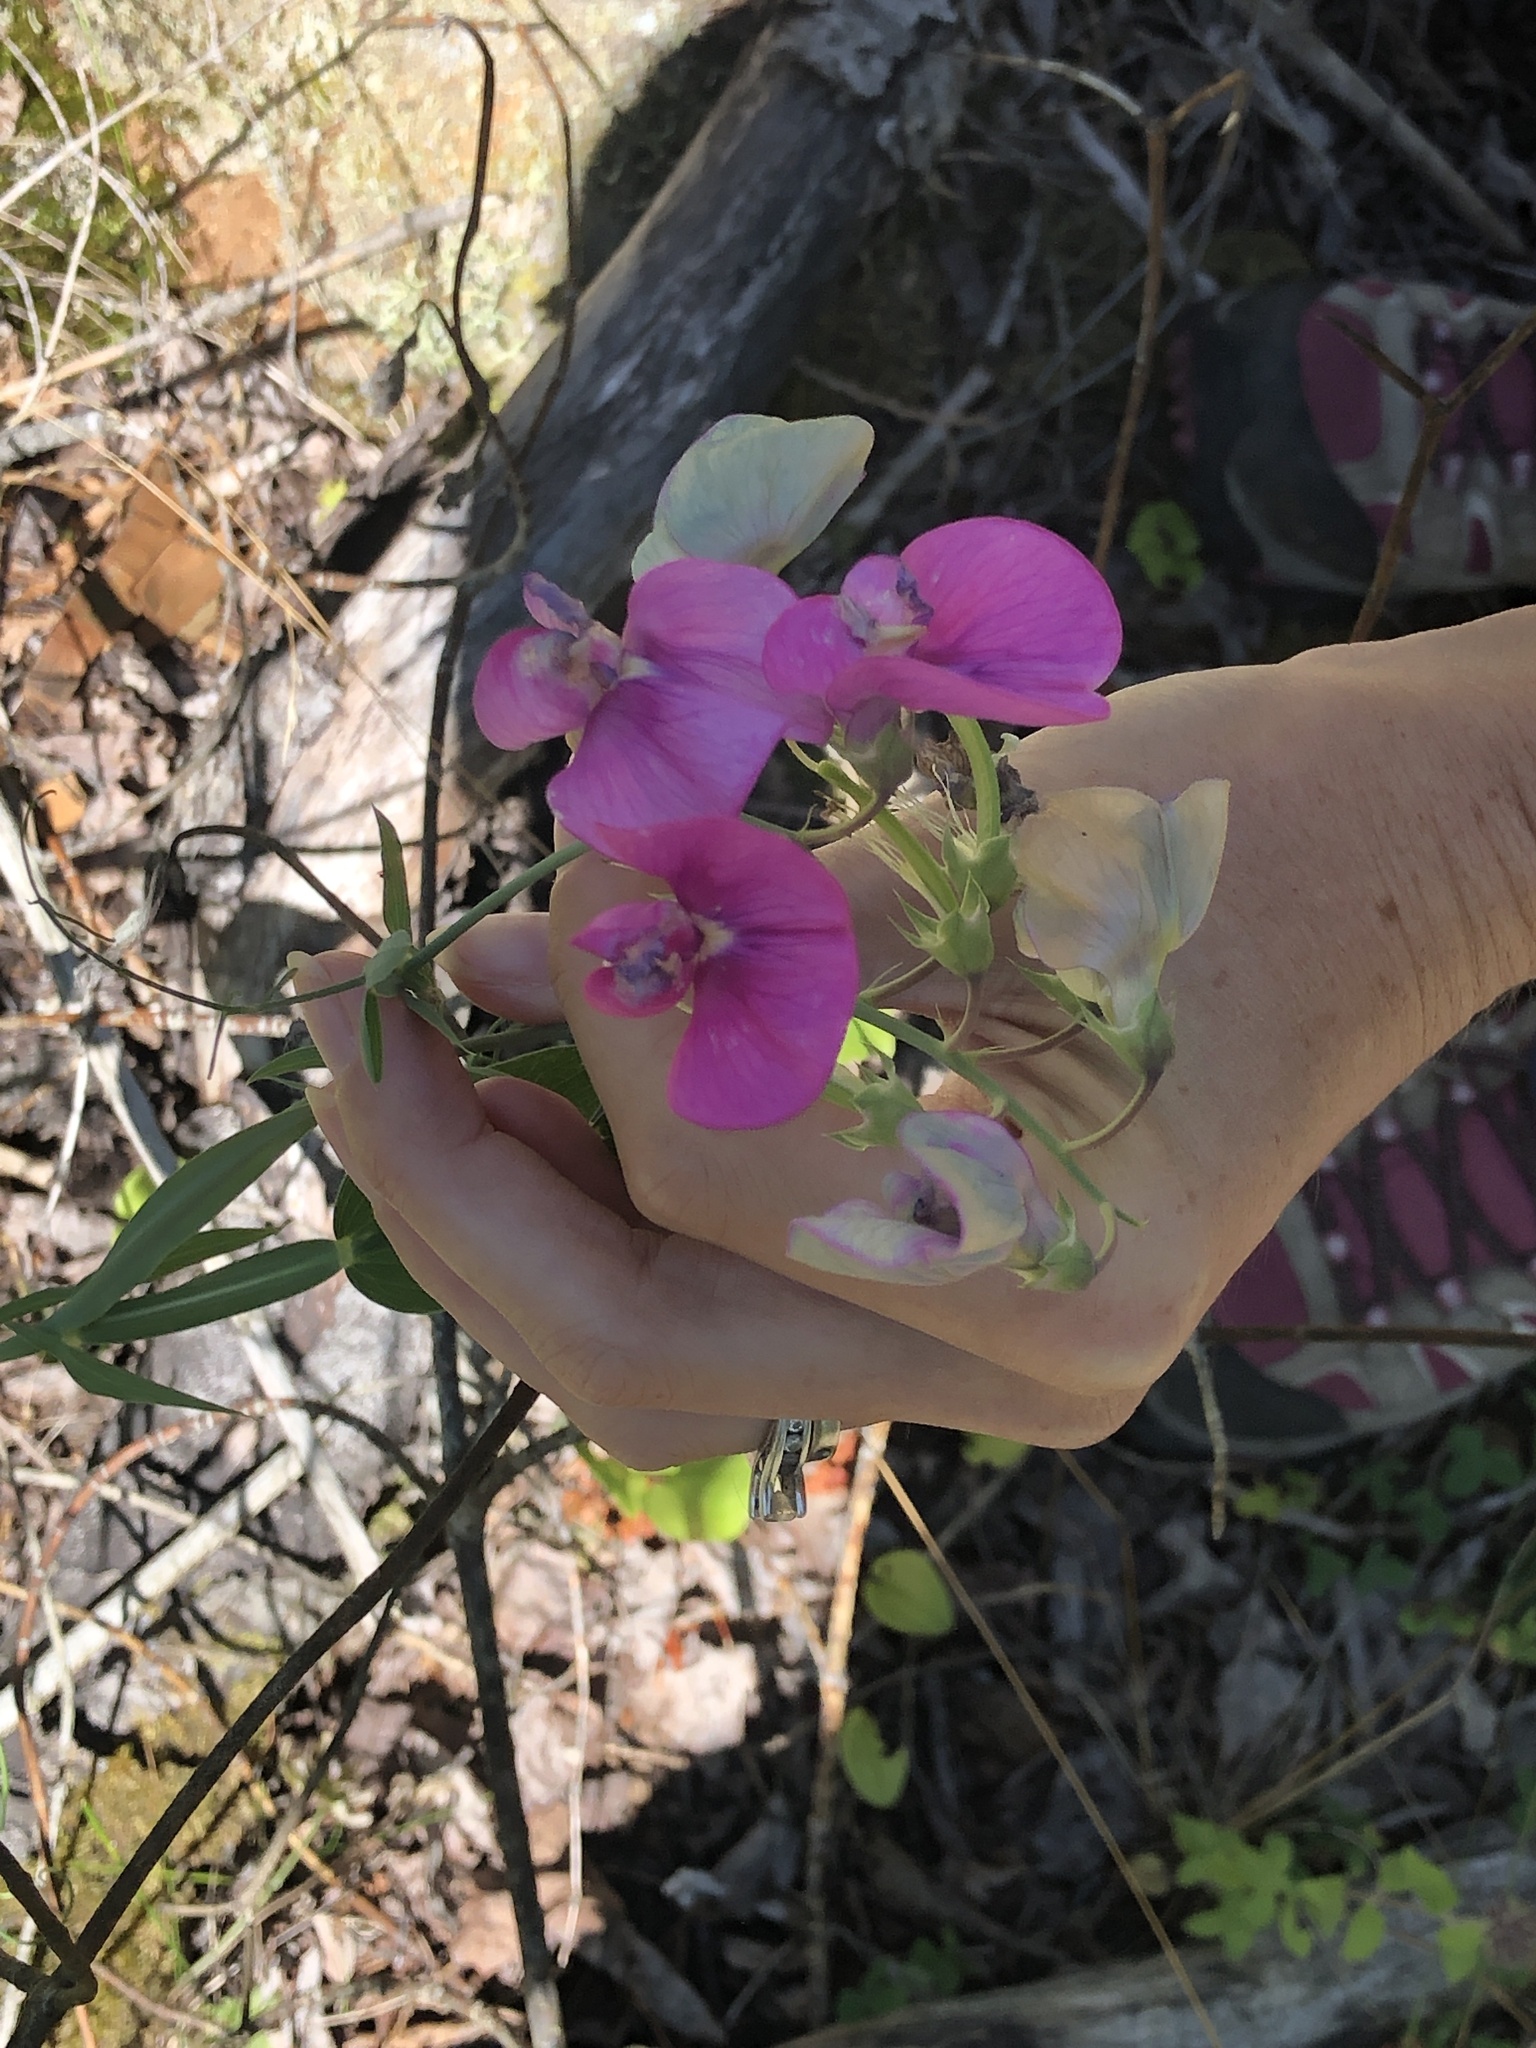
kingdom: Plantae
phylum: Tracheophyta
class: Magnoliopsida
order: Fabales
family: Fabaceae
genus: Lathyrus
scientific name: Lathyrus latifolius
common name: Perennial pea
